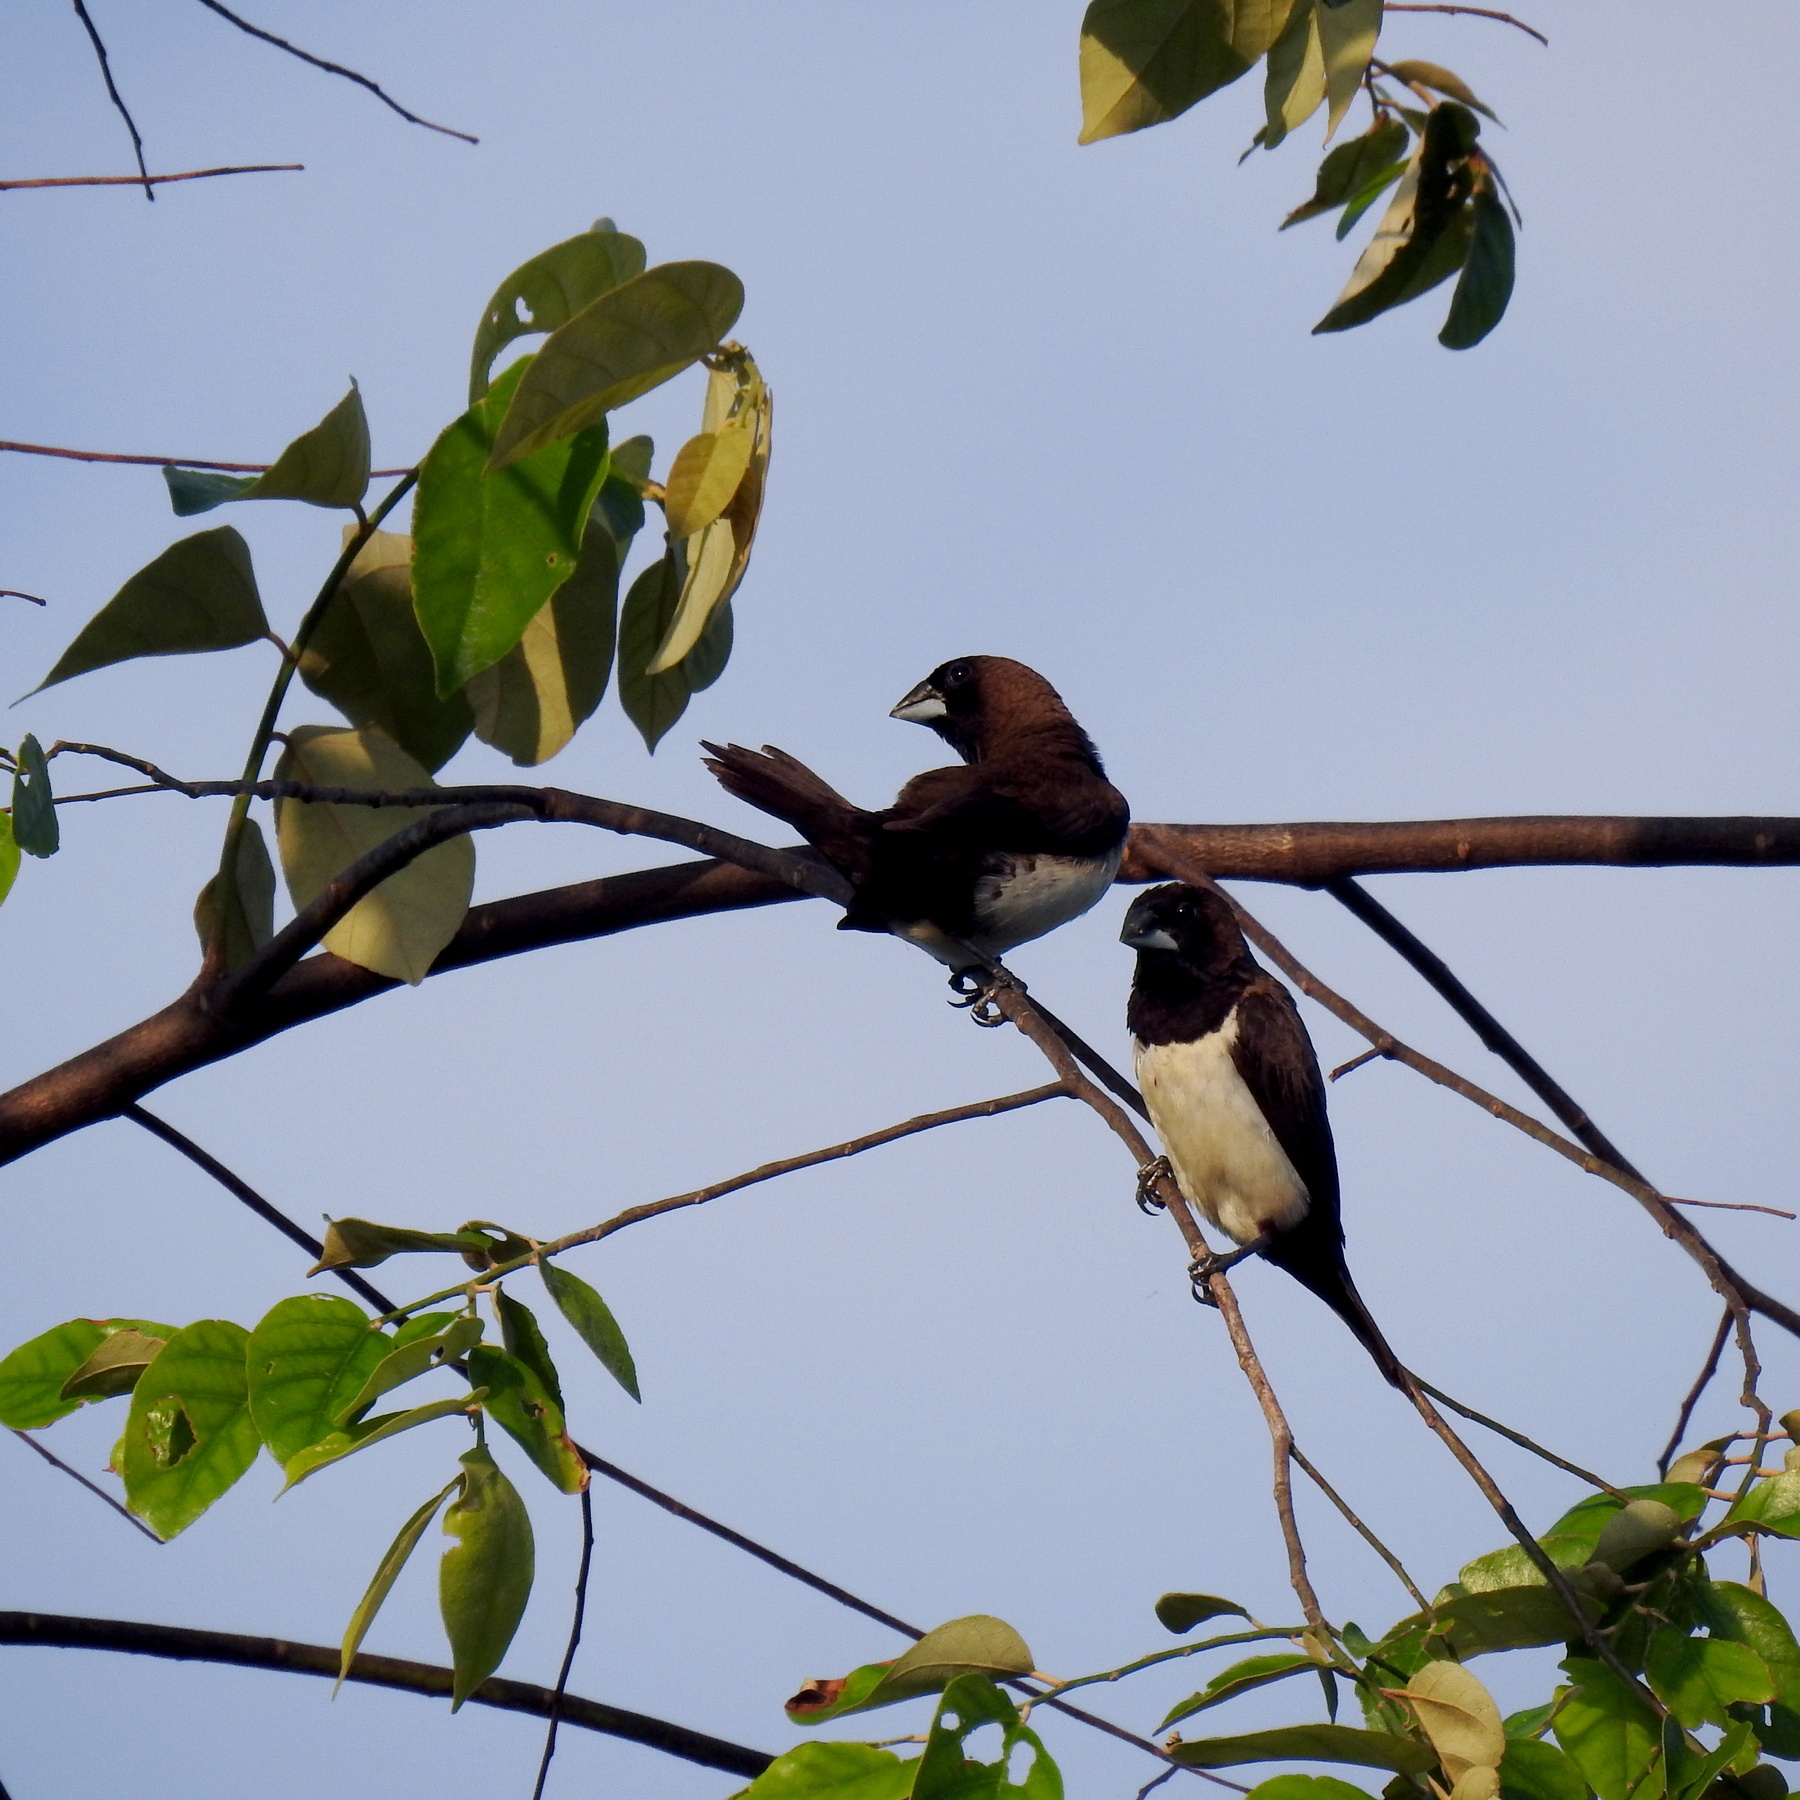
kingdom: Animalia
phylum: Chordata
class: Aves
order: Passeriformes
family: Estrildidae
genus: Lonchura
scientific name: Lonchura leucogastroides
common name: Javan munia
